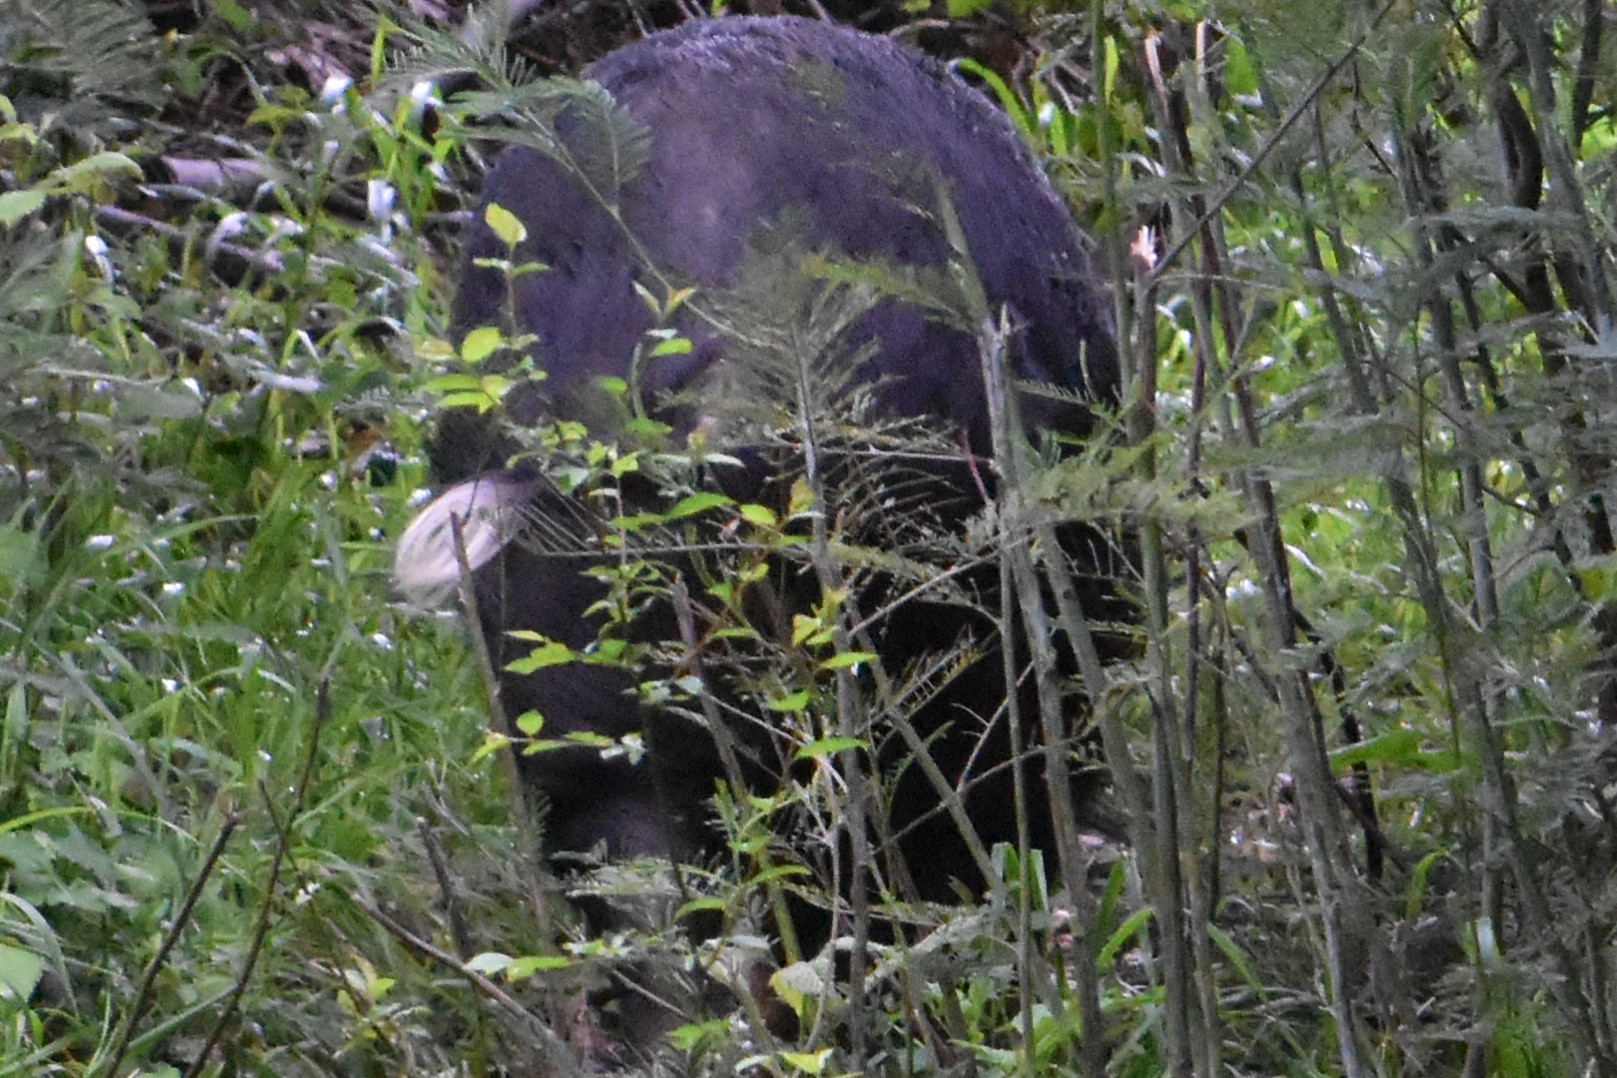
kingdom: Animalia
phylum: Chordata
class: Mammalia
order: Artiodactyla
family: Suidae
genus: Sus
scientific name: Sus scrofa
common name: Wild boar
